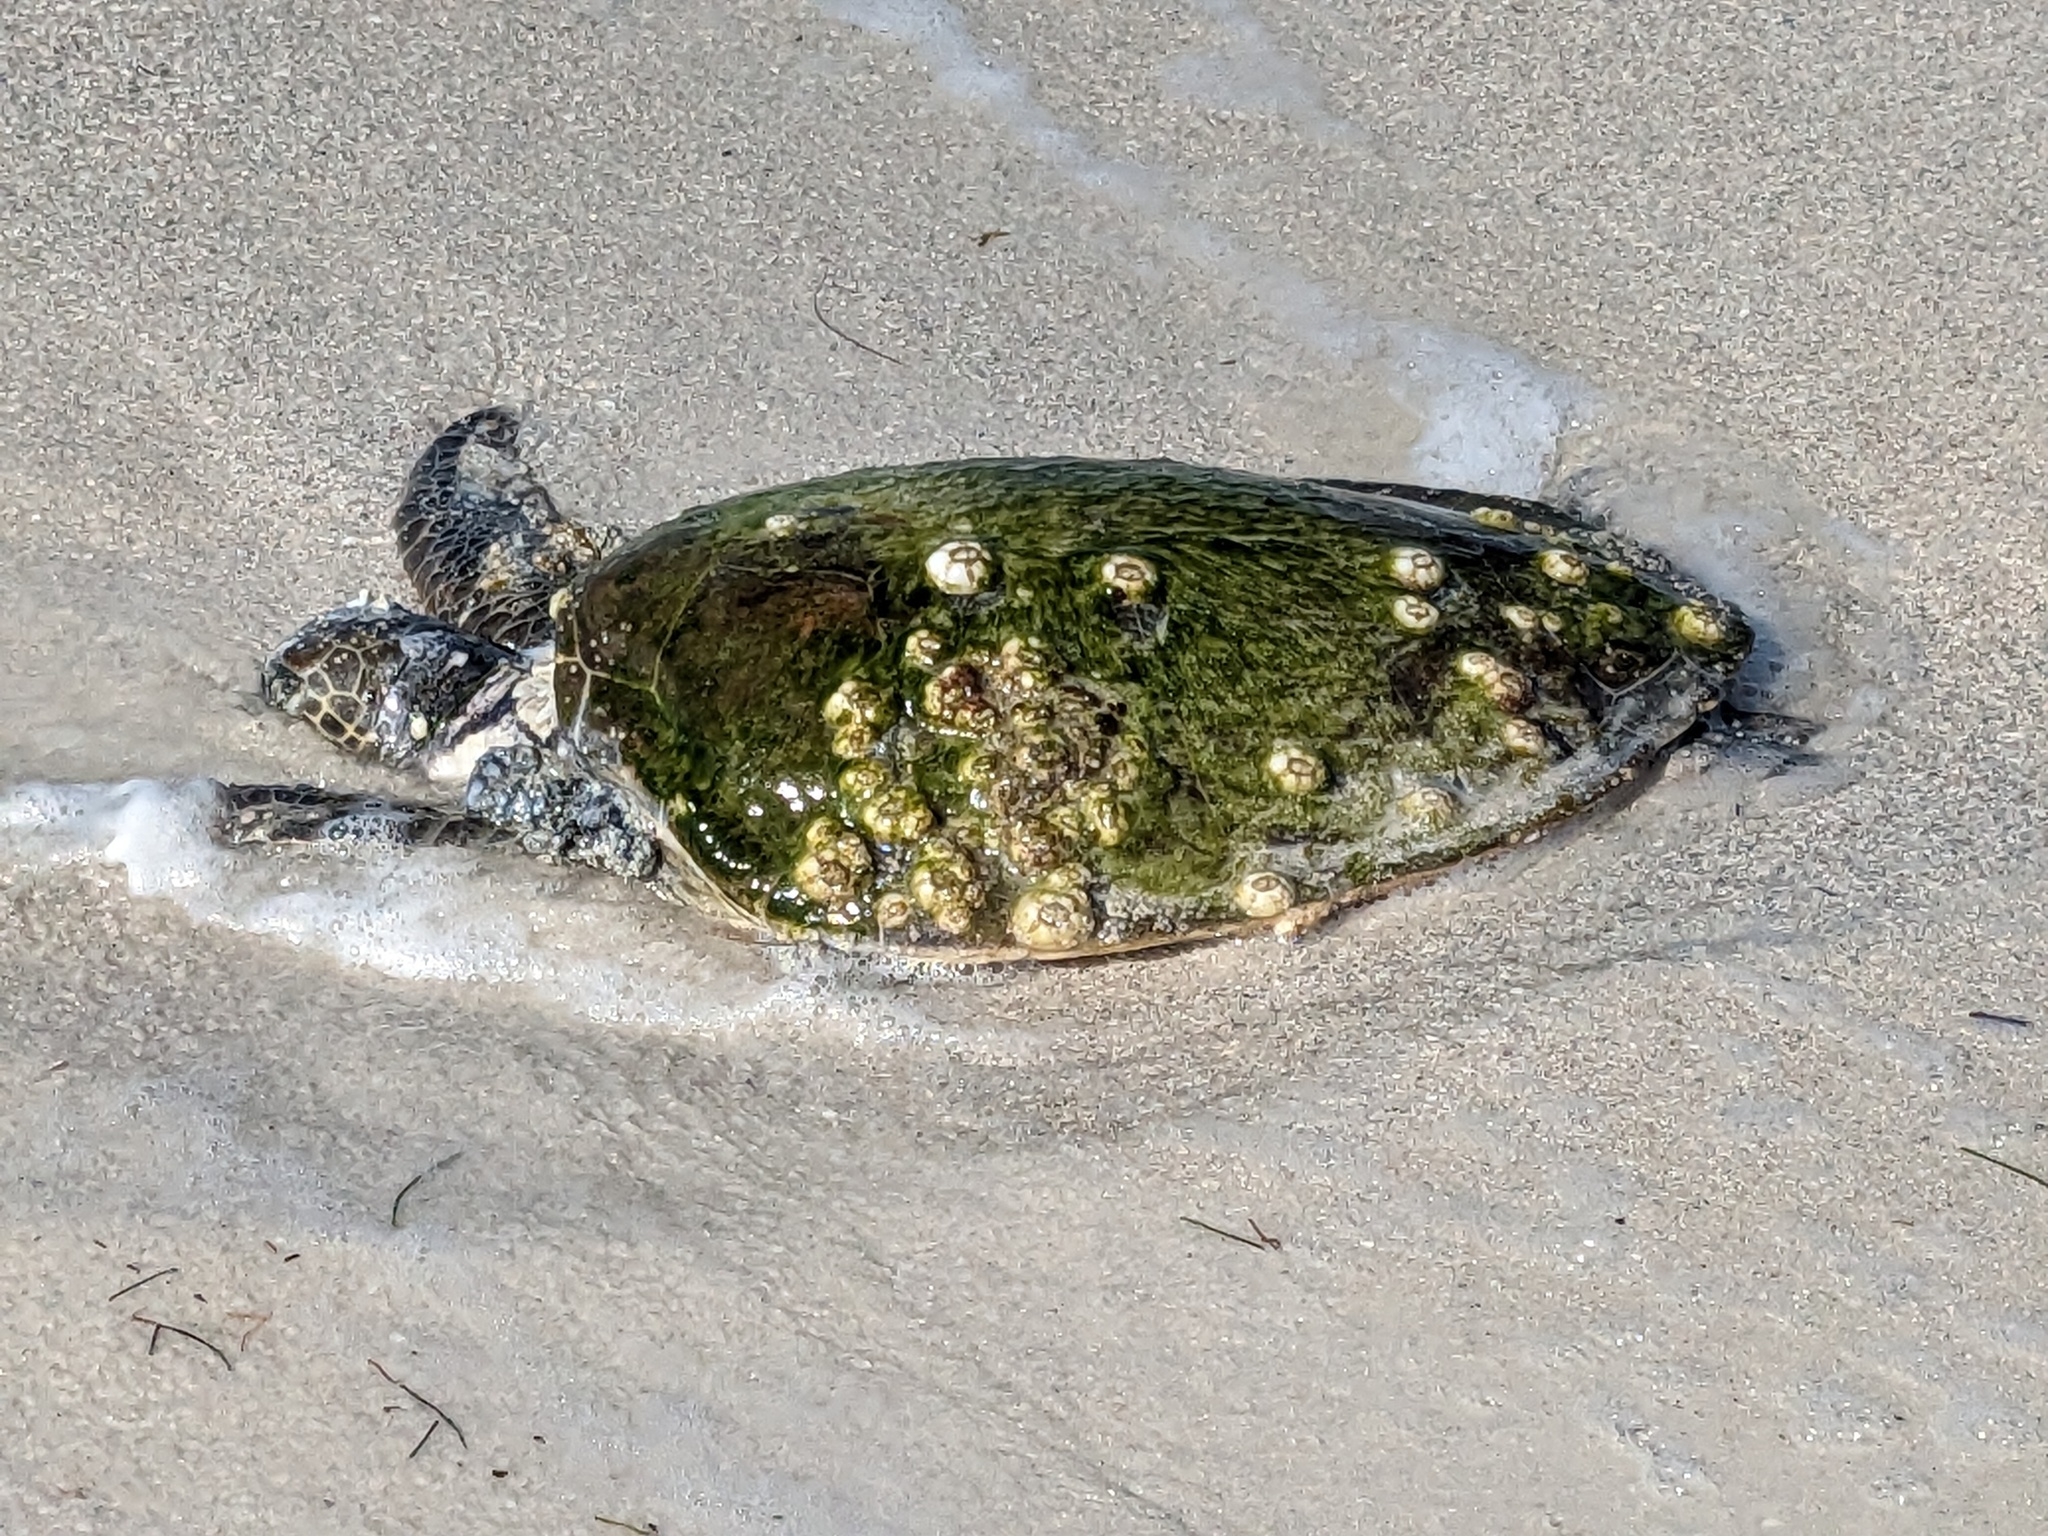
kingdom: Animalia
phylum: Chordata
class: Testudines
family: Cheloniidae
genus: Chelonia
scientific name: Chelonia mydas
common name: Green turtle
